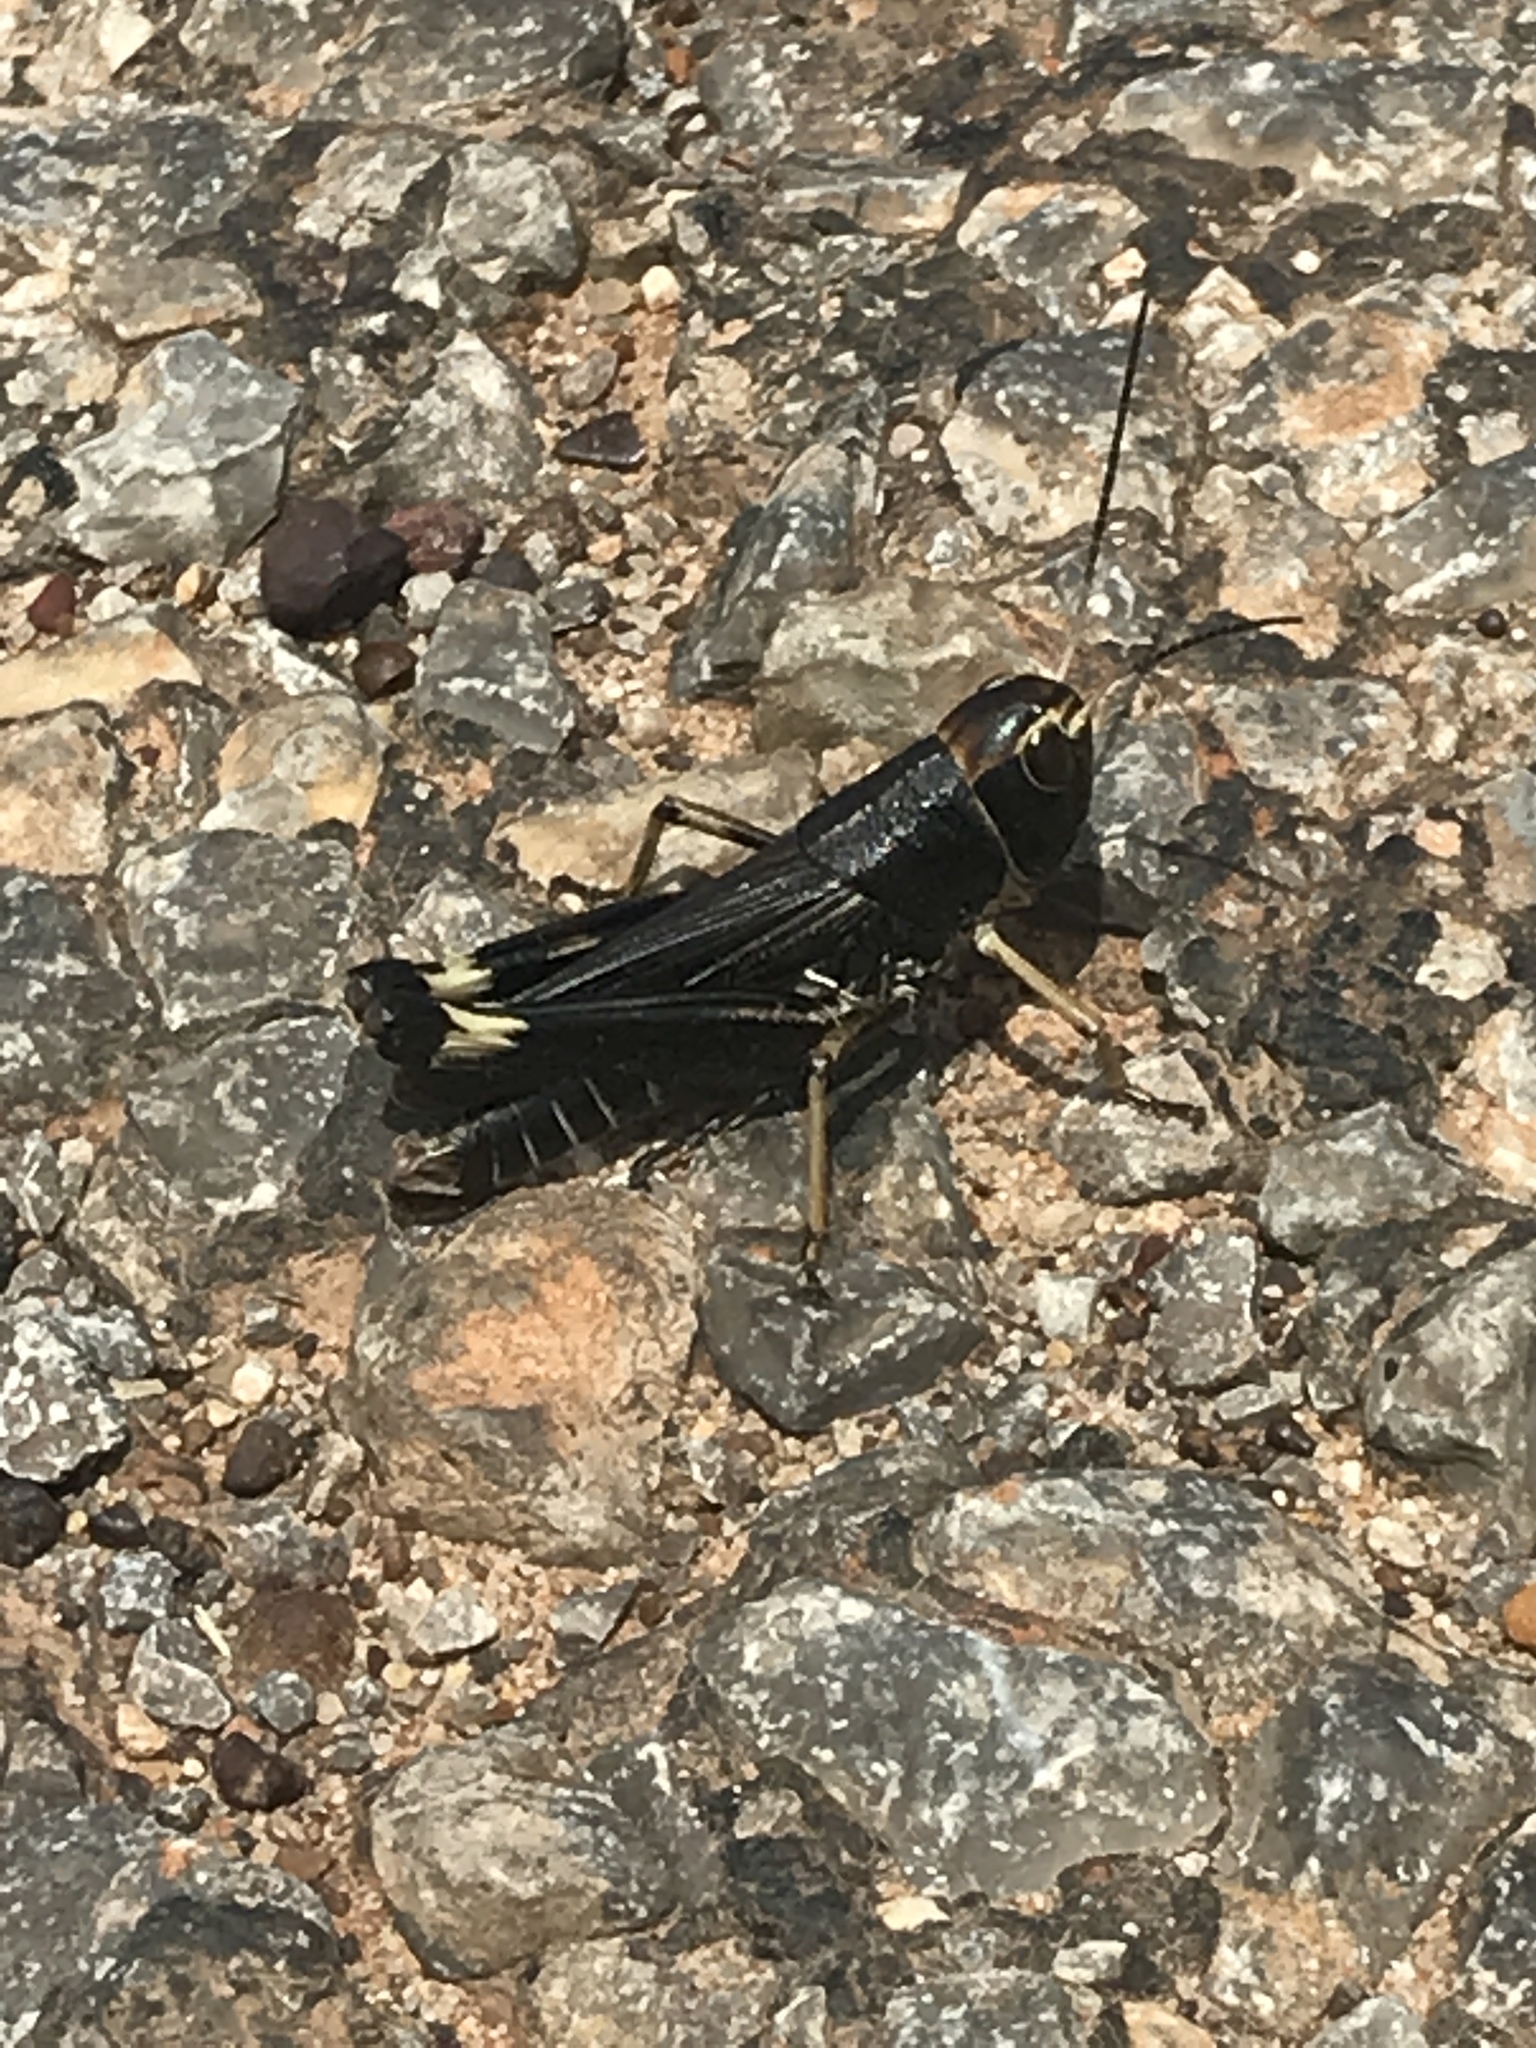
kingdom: Animalia
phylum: Arthropoda
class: Insecta
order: Orthoptera
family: Acrididae
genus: Boopedon
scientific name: Boopedon nubilum
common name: Ebony grasshopper
